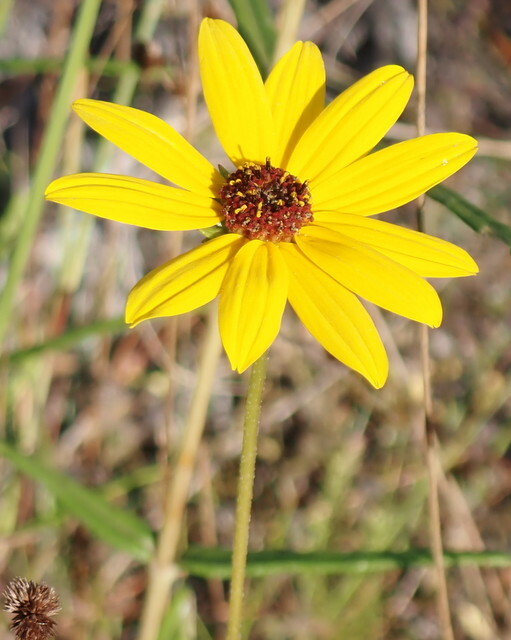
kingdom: Plantae
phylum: Tracheophyta
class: Magnoliopsida
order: Asterales
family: Asteraceae
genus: Helianthus
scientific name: Helianthus angustifolius
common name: Swamp sunflower
